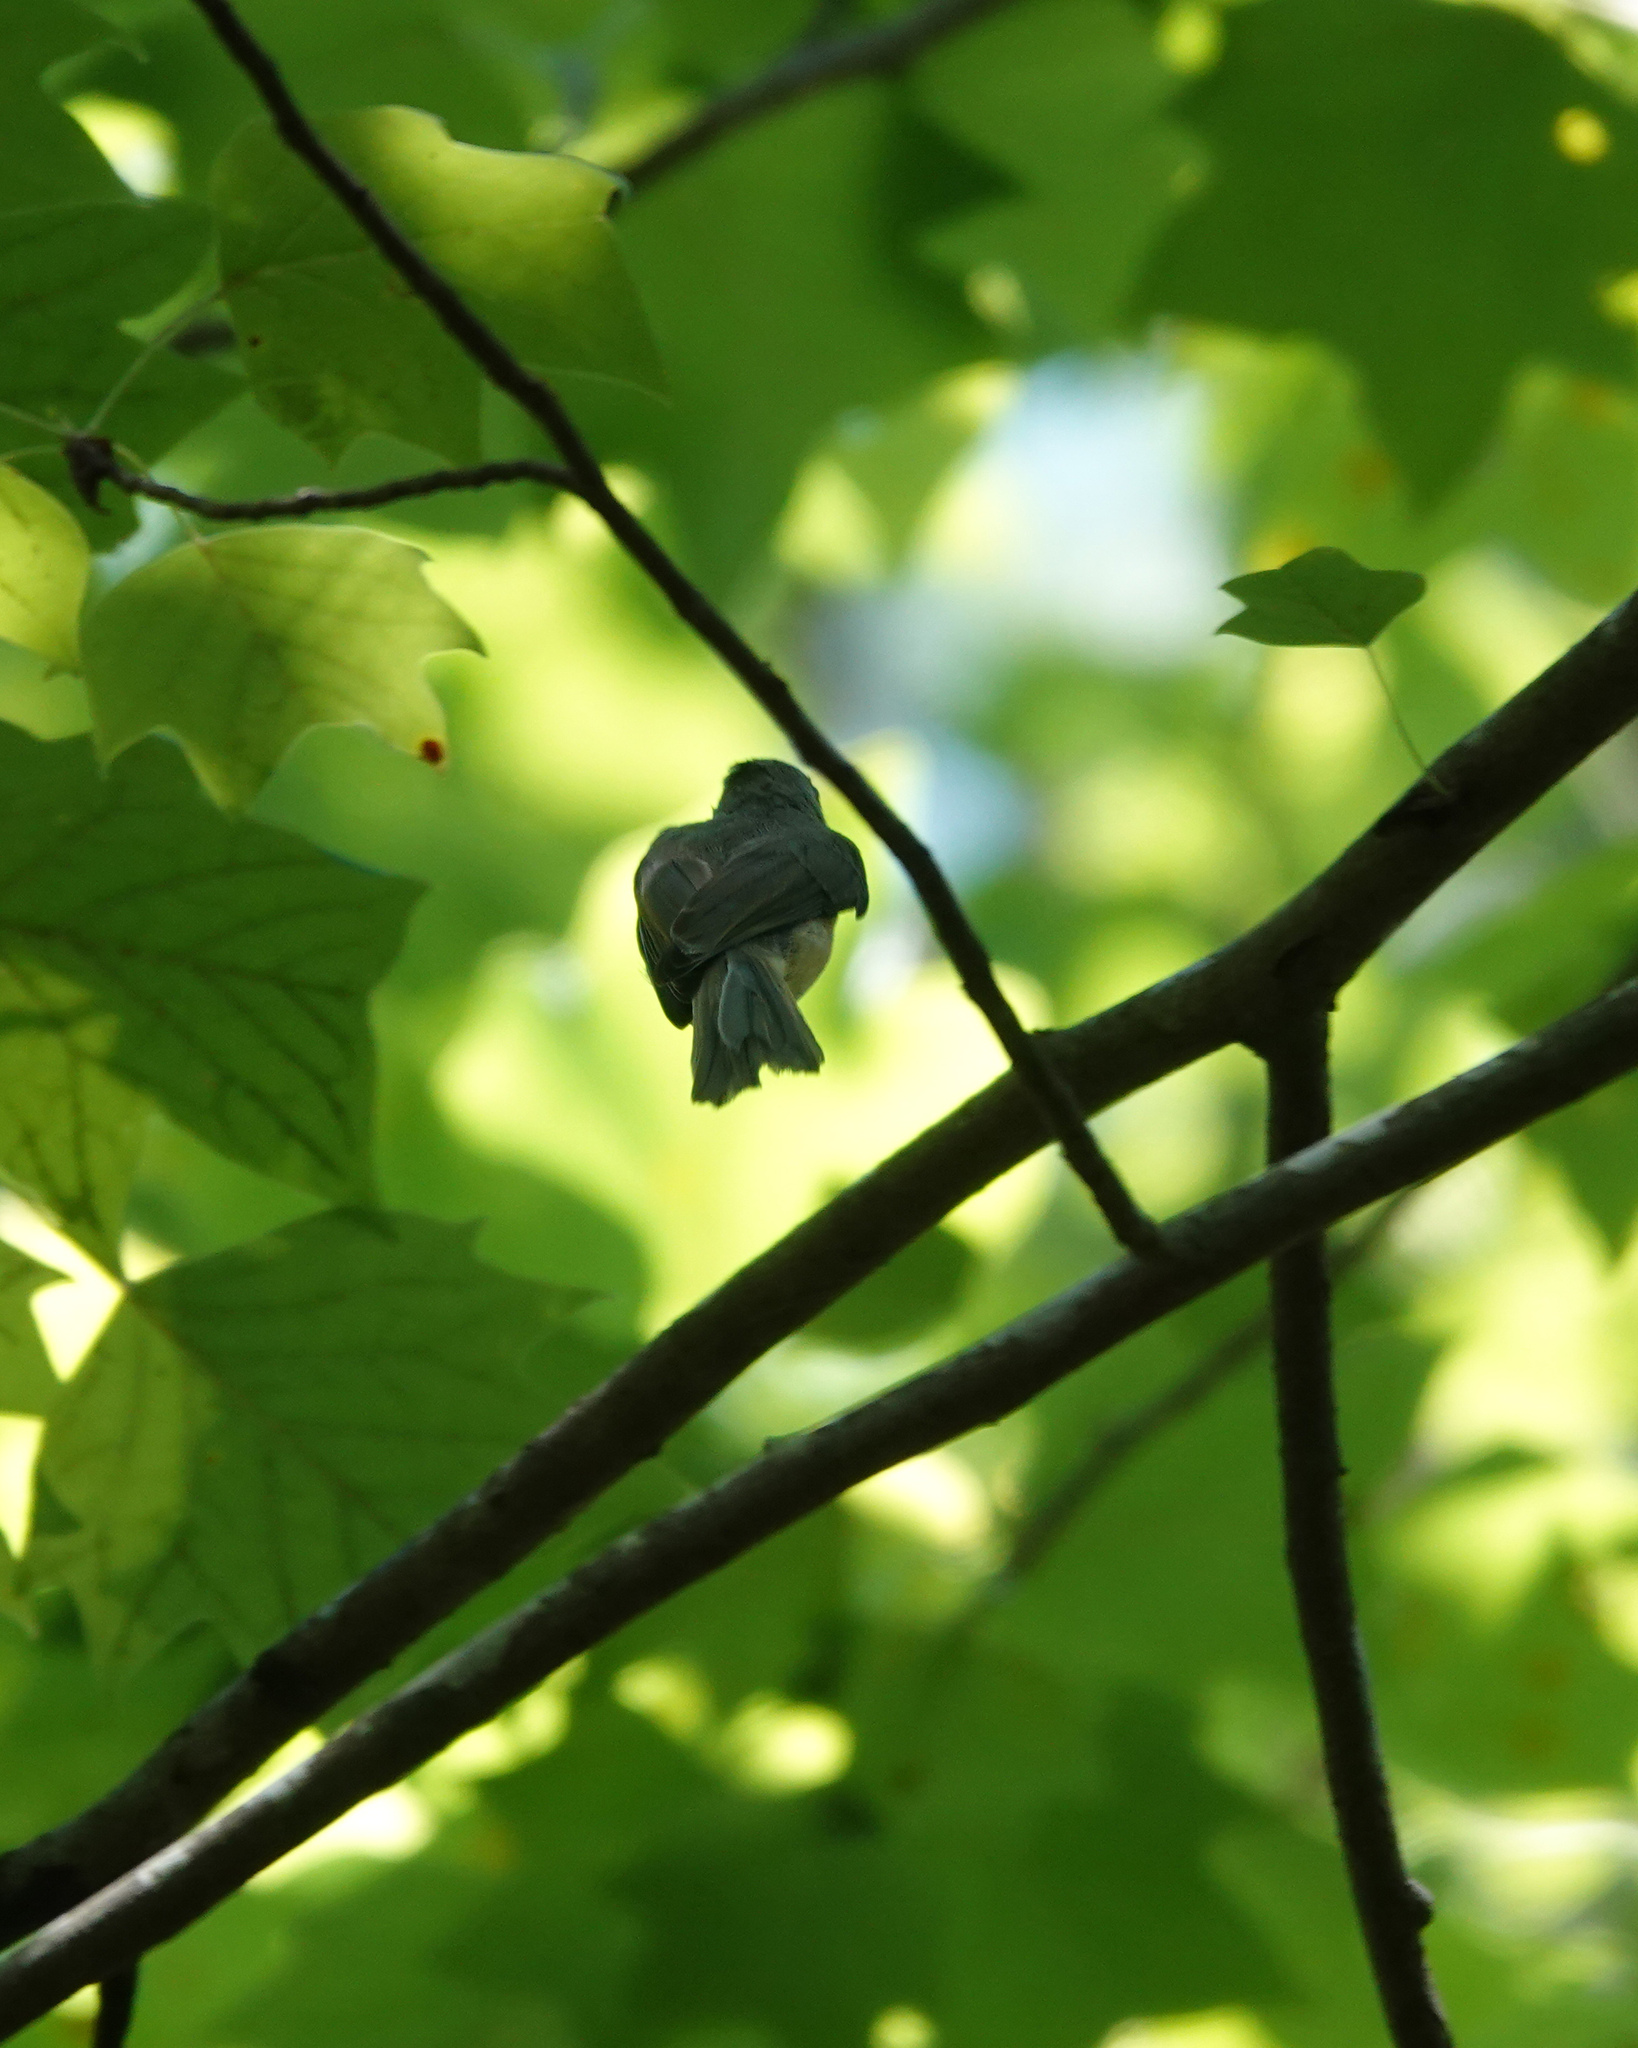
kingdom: Animalia
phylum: Chordata
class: Aves
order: Passeriformes
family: Paridae
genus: Baeolophus
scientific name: Baeolophus bicolor
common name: Tufted titmouse
